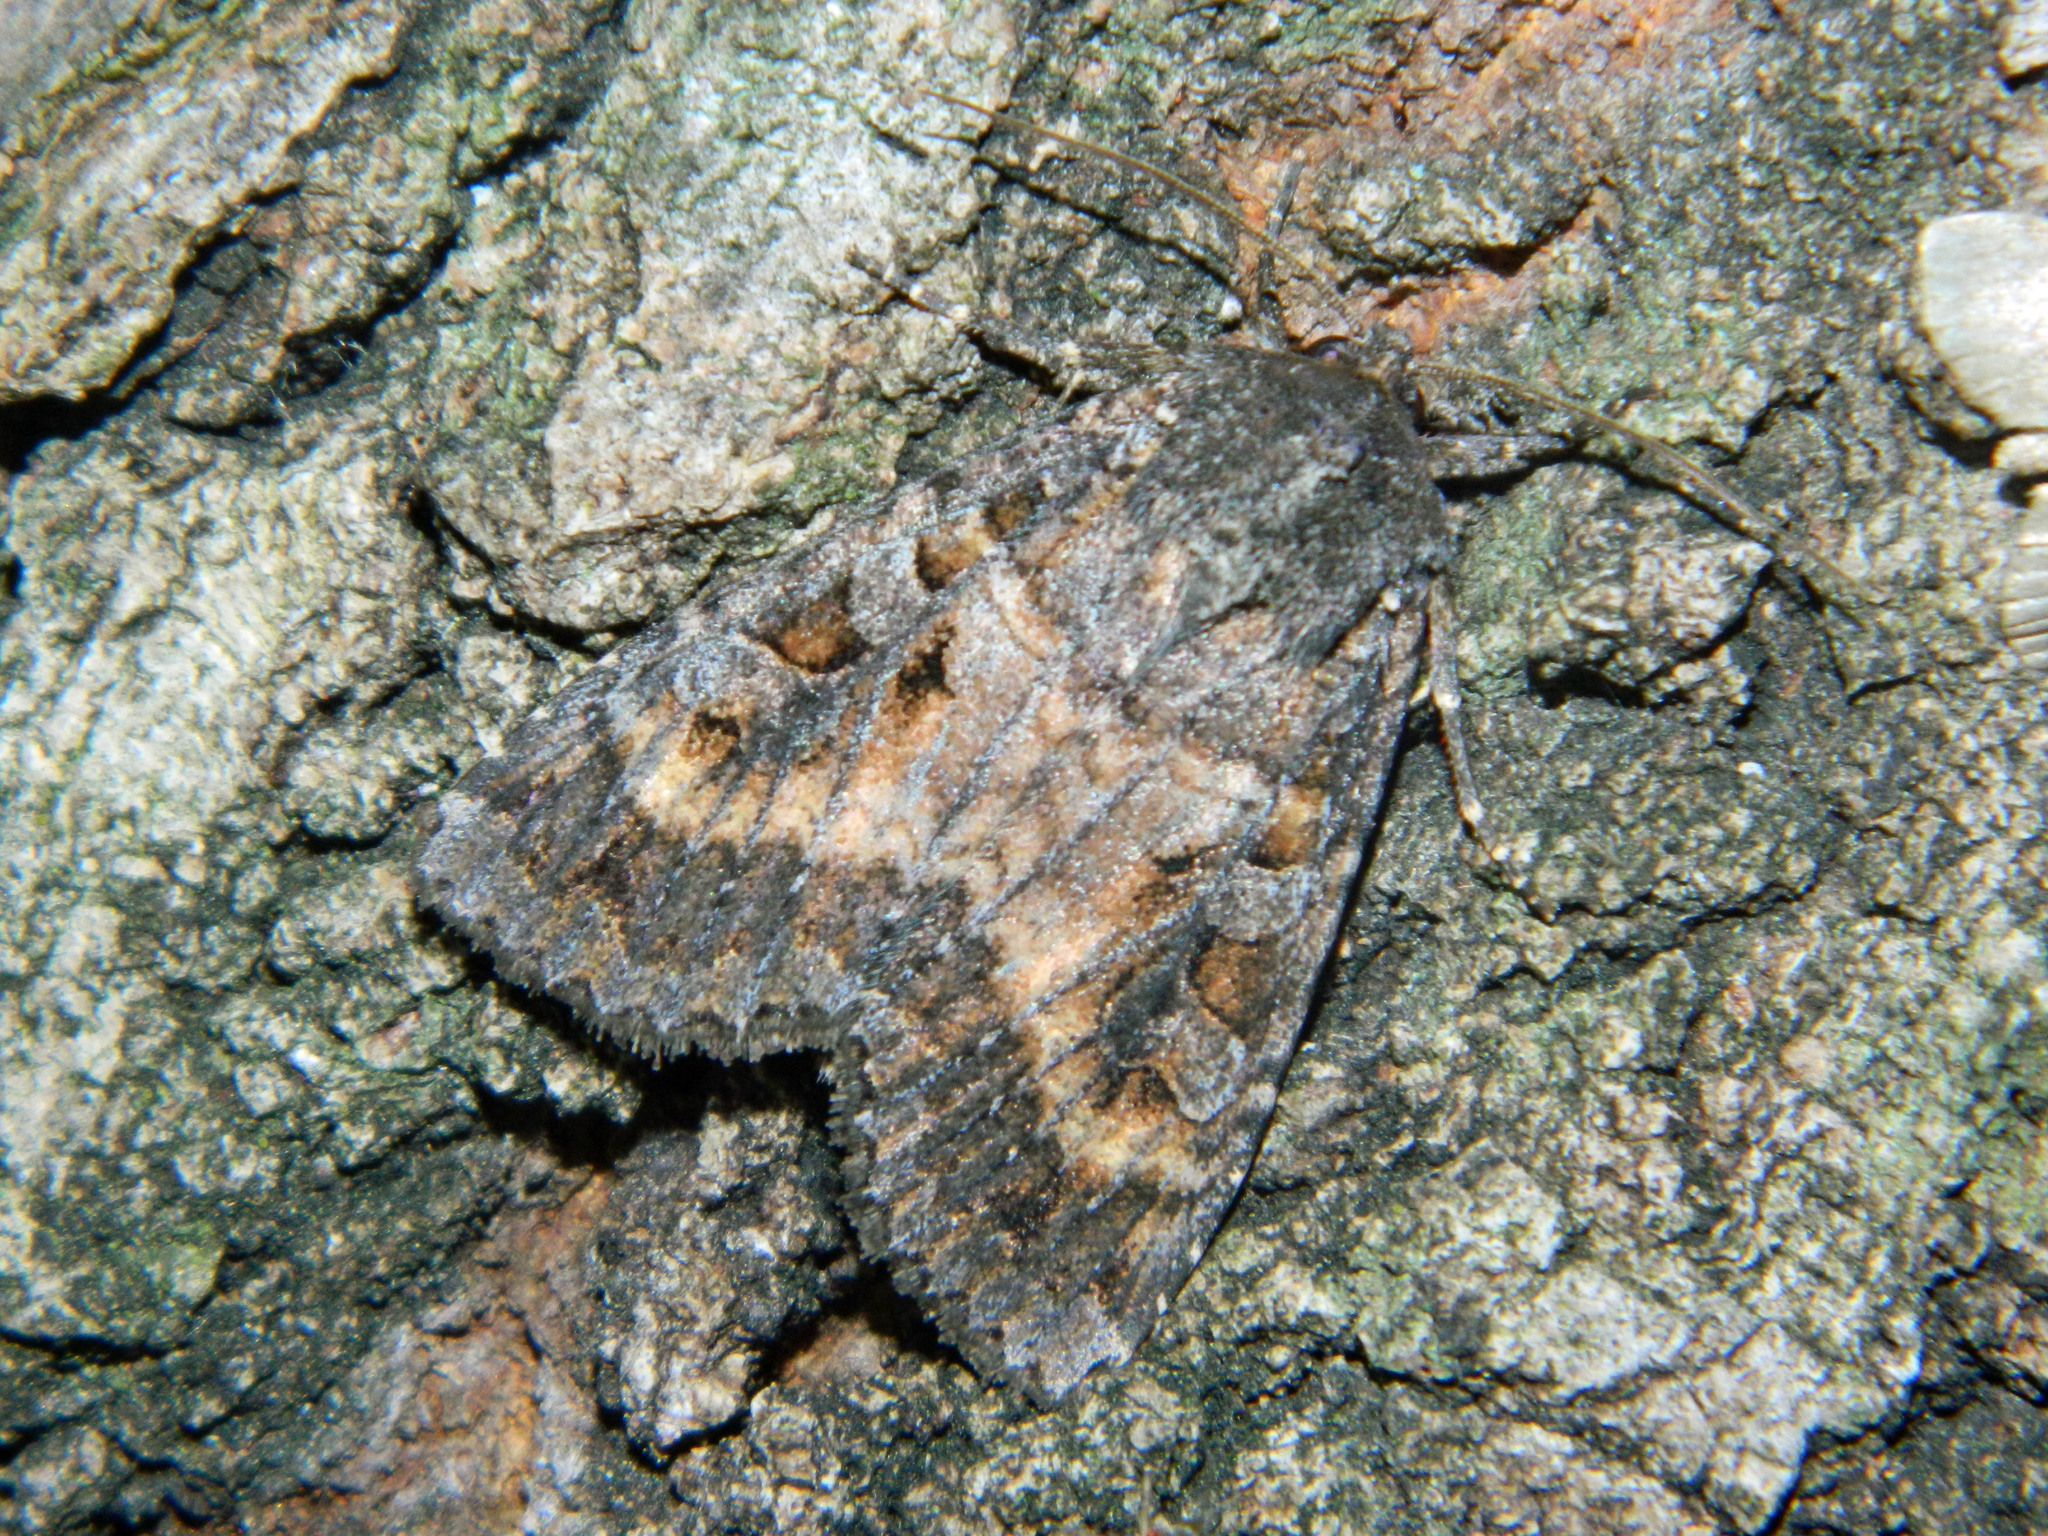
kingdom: Animalia
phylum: Arthropoda
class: Insecta
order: Lepidoptera
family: Noctuidae
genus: Eurois
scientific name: Eurois astricta
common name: Great brown dart
